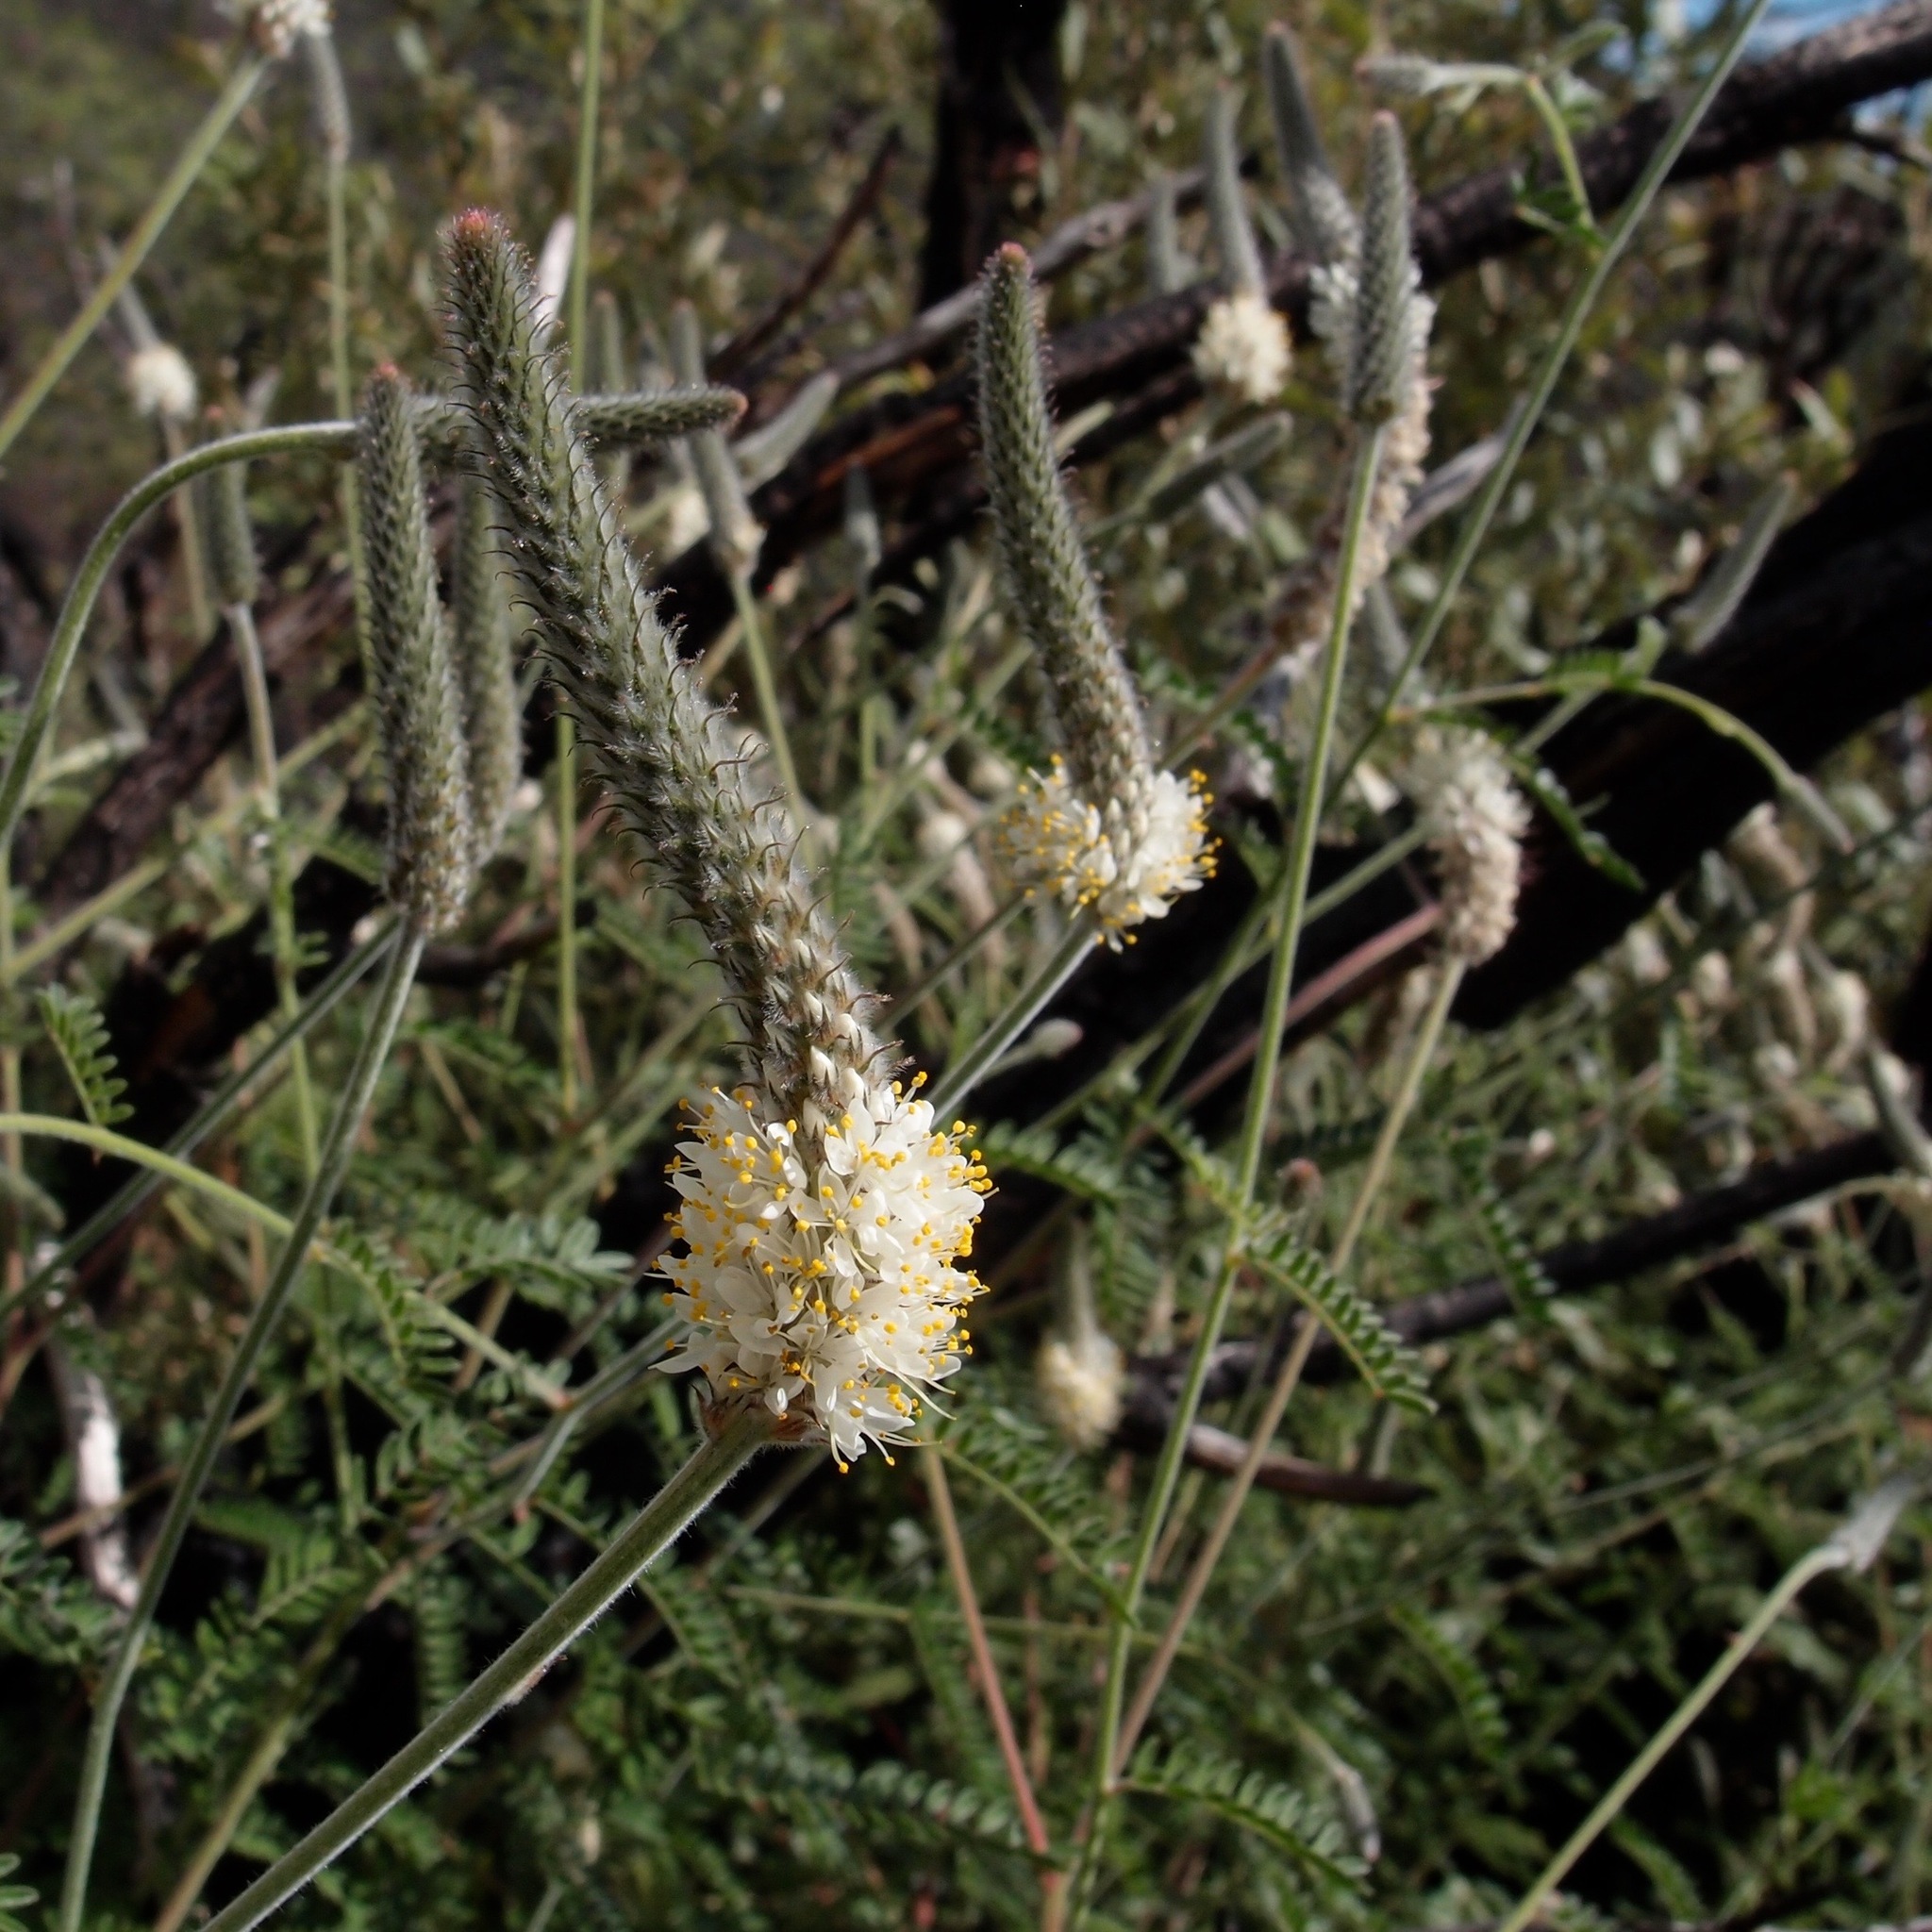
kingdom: Plantae
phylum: Tracheophyta
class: Magnoliopsida
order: Fabales
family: Fabaceae
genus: Dalea
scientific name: Dalea albiflora
